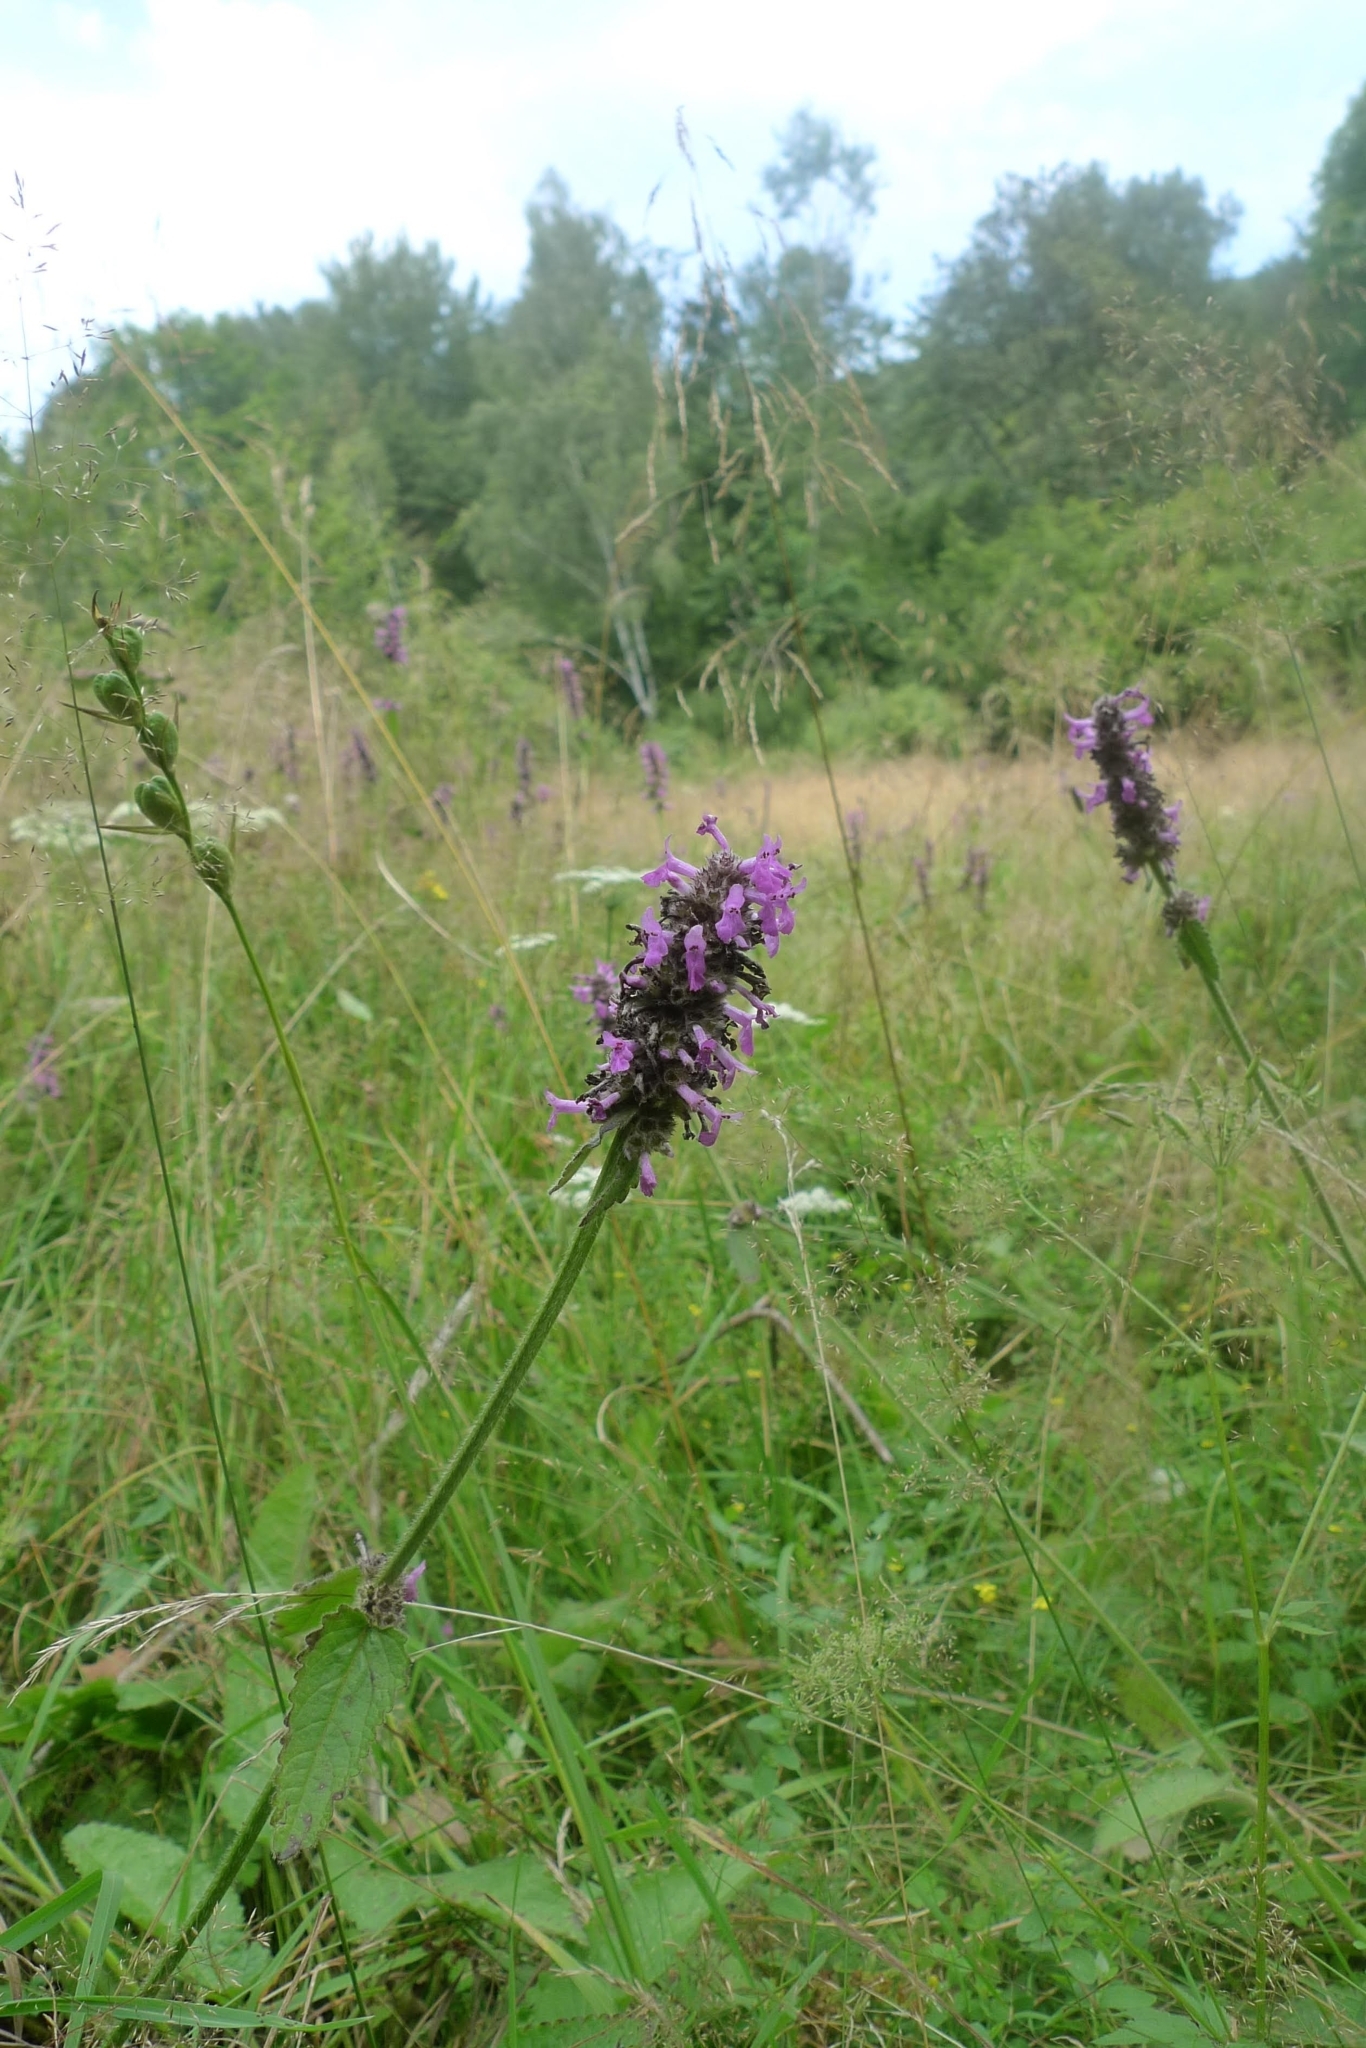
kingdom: Plantae
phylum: Tracheophyta
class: Magnoliopsida
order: Lamiales
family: Lamiaceae
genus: Betonica
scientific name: Betonica officinalis
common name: Bishop's-wort
